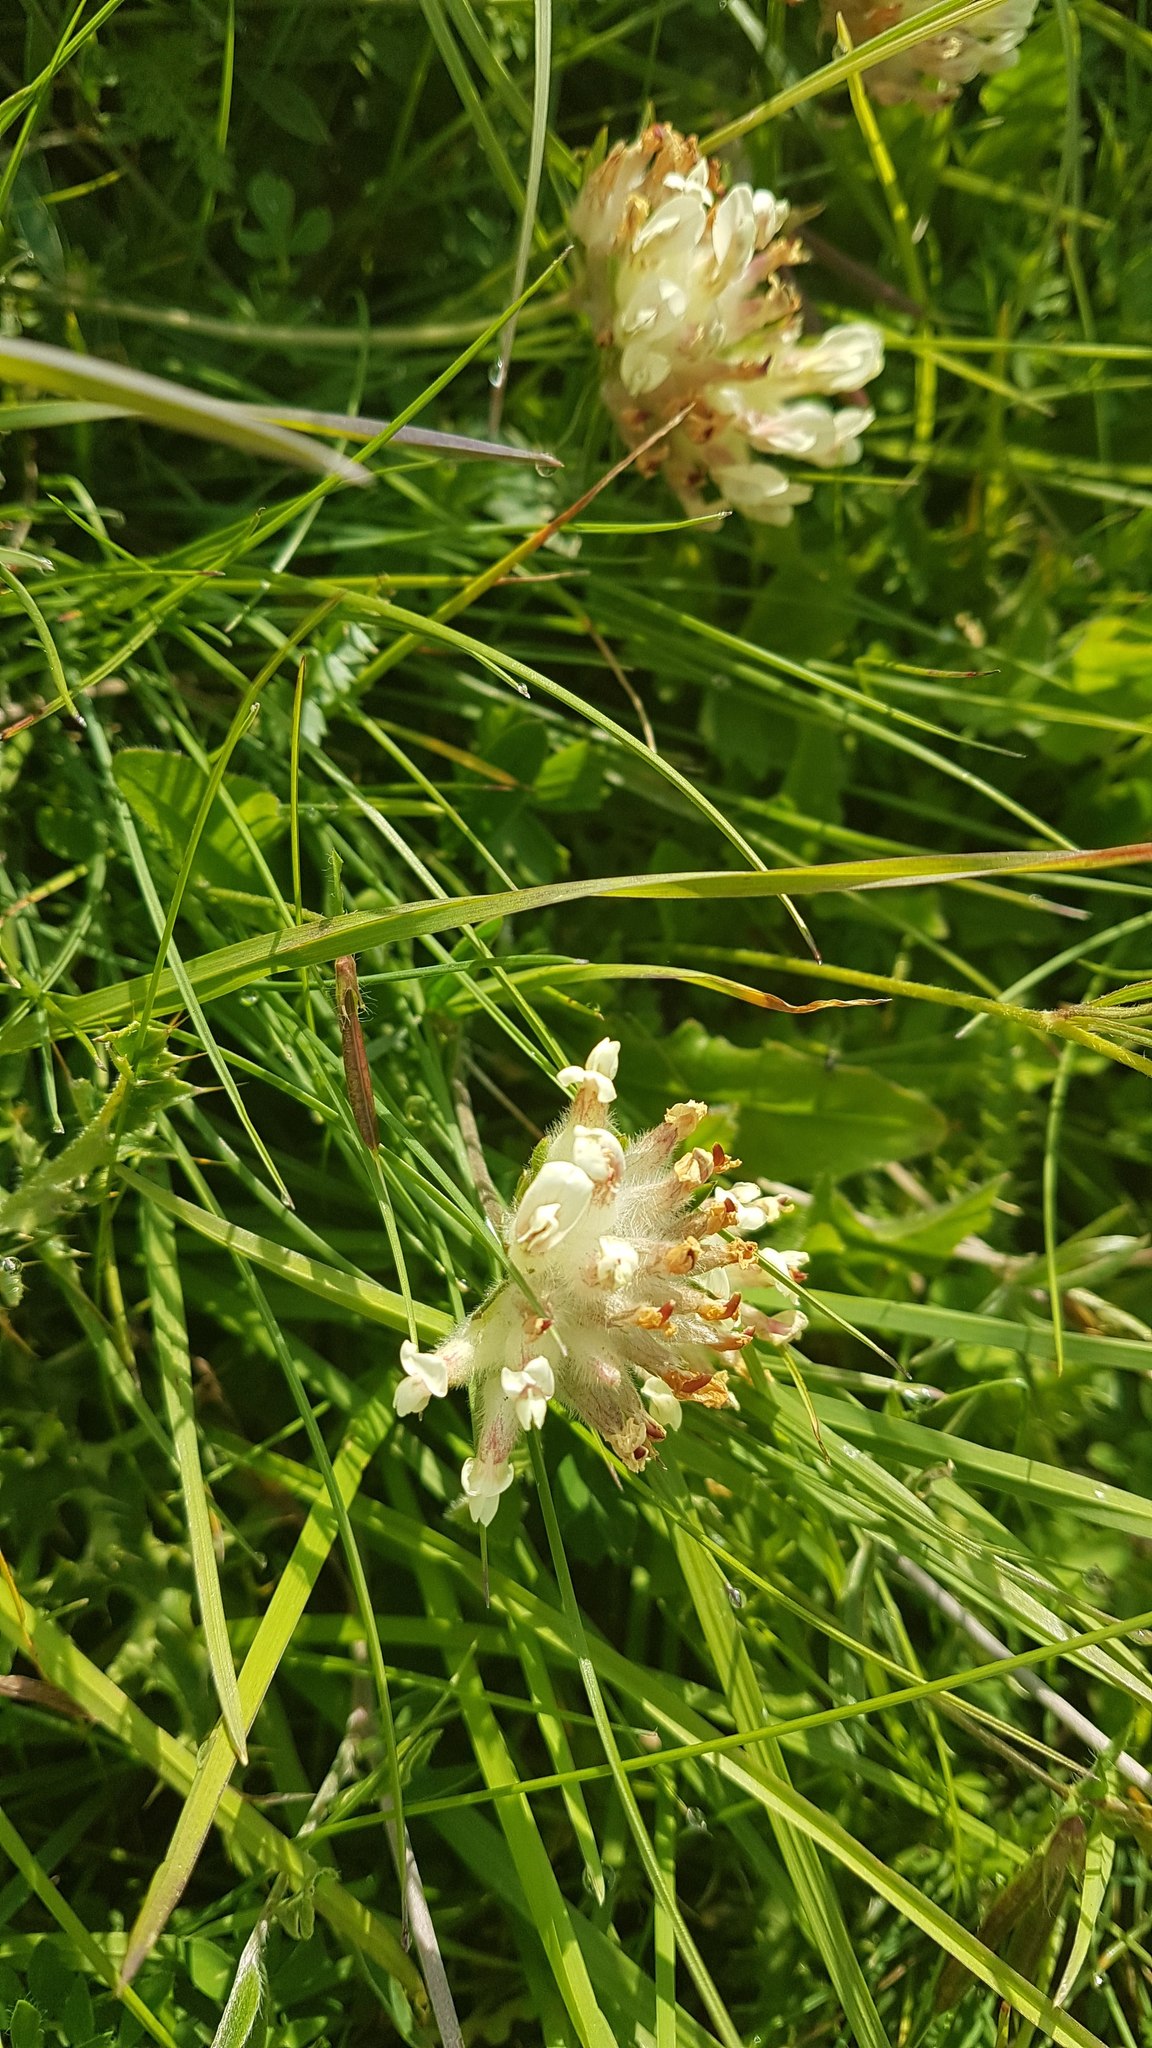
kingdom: Plantae
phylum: Tracheophyta
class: Magnoliopsida
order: Fabales
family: Fabaceae
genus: Anthyllis
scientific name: Anthyllis vulneraria
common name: Kidney vetch
